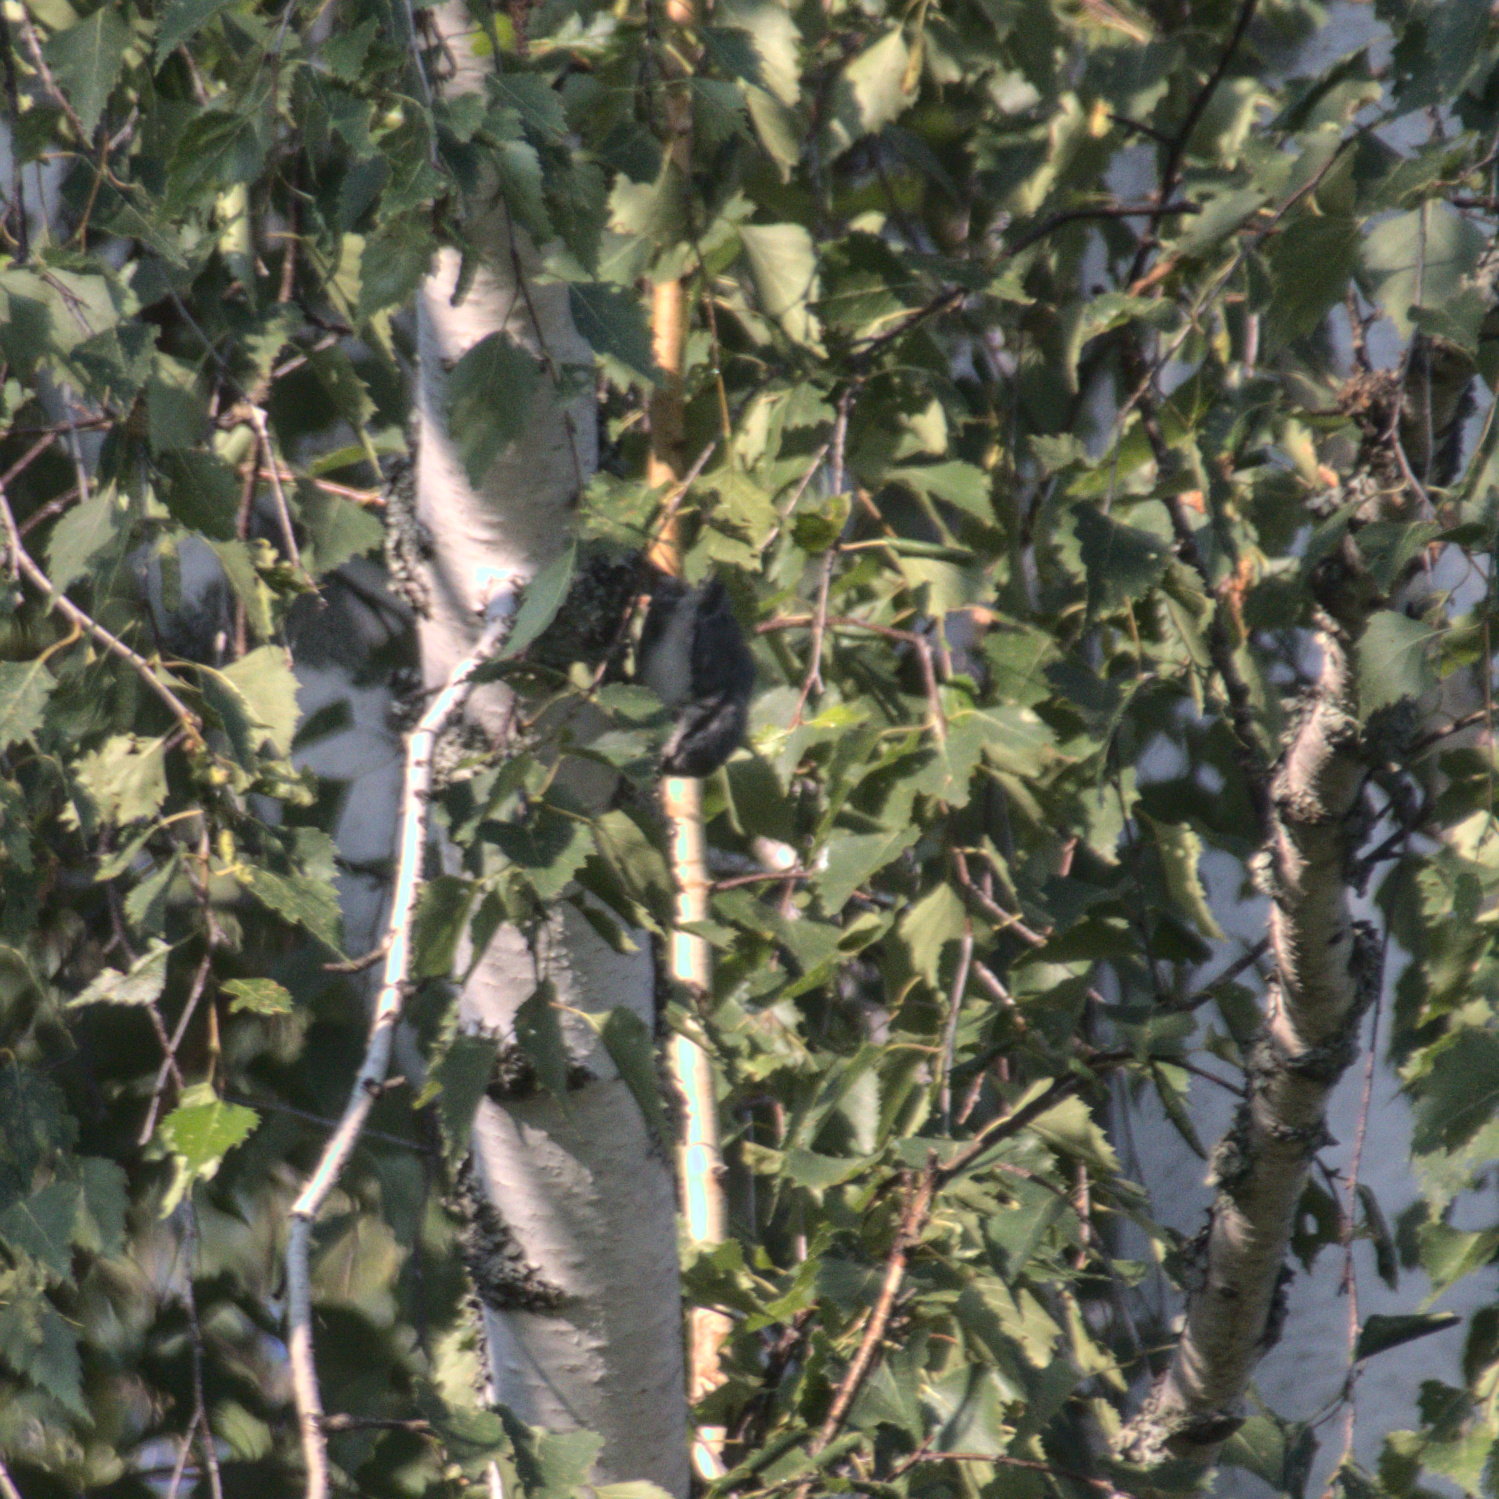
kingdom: Animalia
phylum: Chordata
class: Aves
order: Passeriformes
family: Sittidae
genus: Sitta
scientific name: Sitta europaea
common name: Eurasian nuthatch
